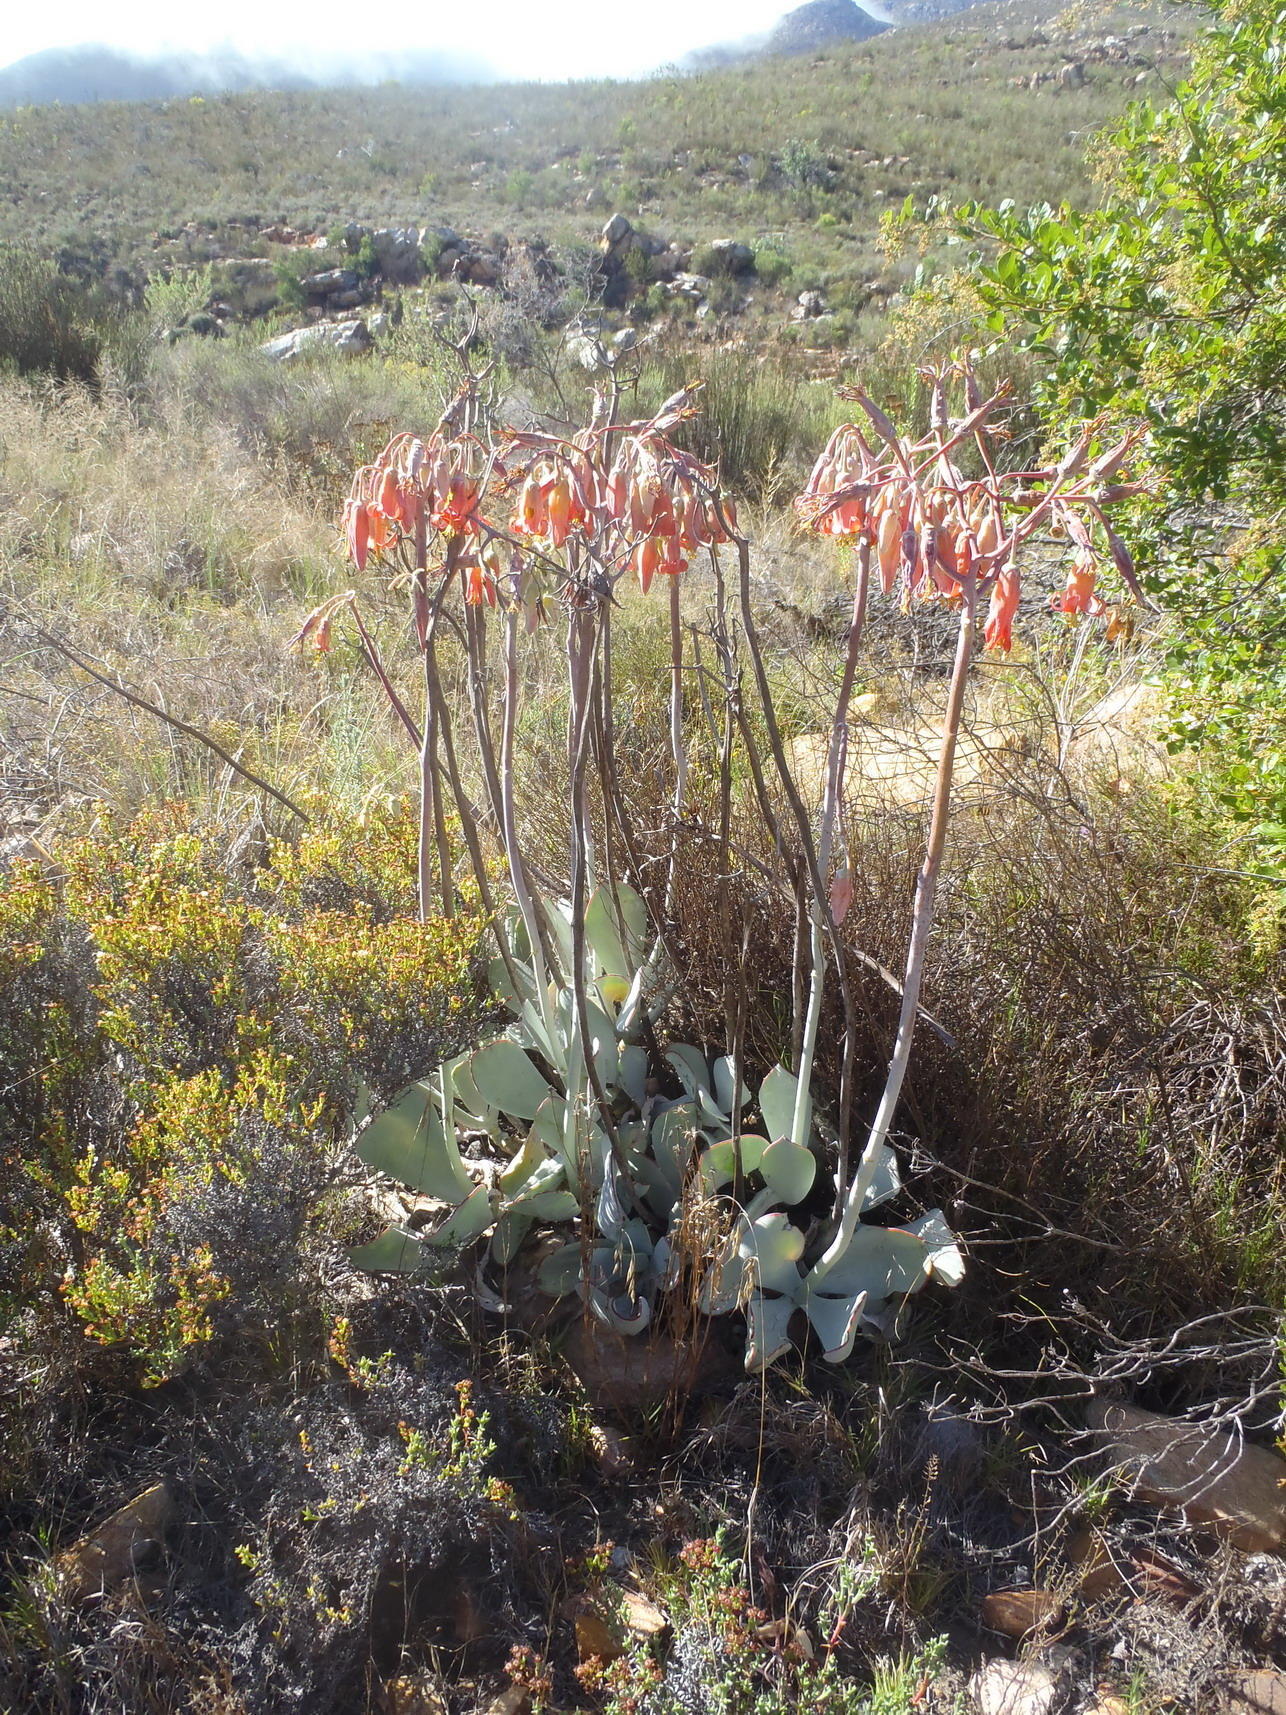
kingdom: Plantae
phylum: Tracheophyta
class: Magnoliopsida
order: Saxifragales
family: Crassulaceae
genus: Cotyledon
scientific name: Cotyledon orbiculata
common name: Pig's ear
